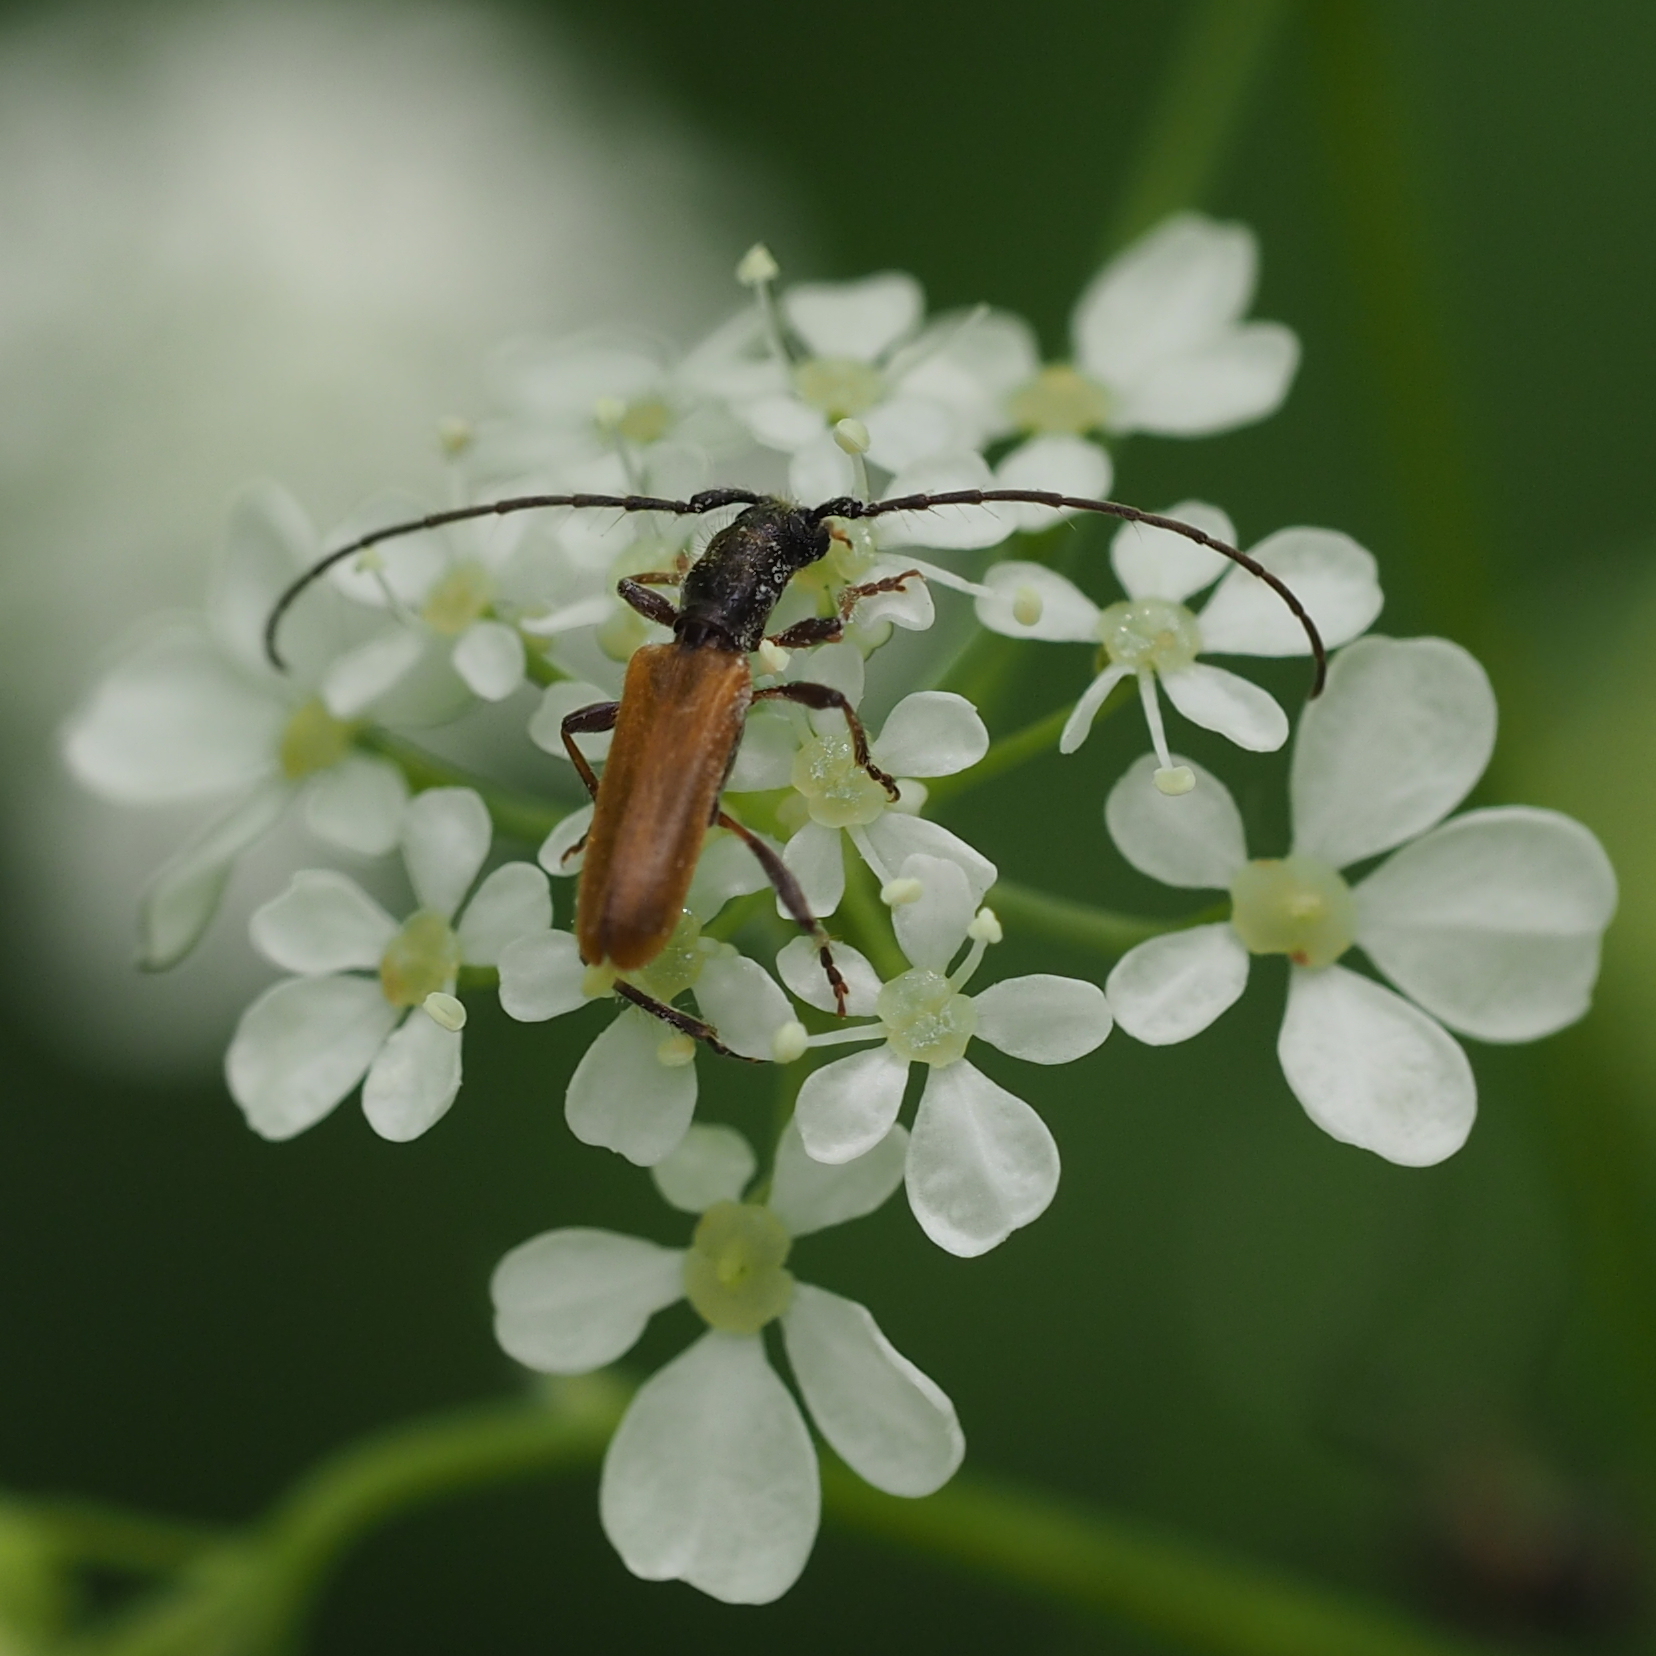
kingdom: Animalia
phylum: Arthropoda
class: Insecta
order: Coleoptera
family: Cerambycidae
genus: Stenhomalus
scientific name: Stenhomalus bicolor
